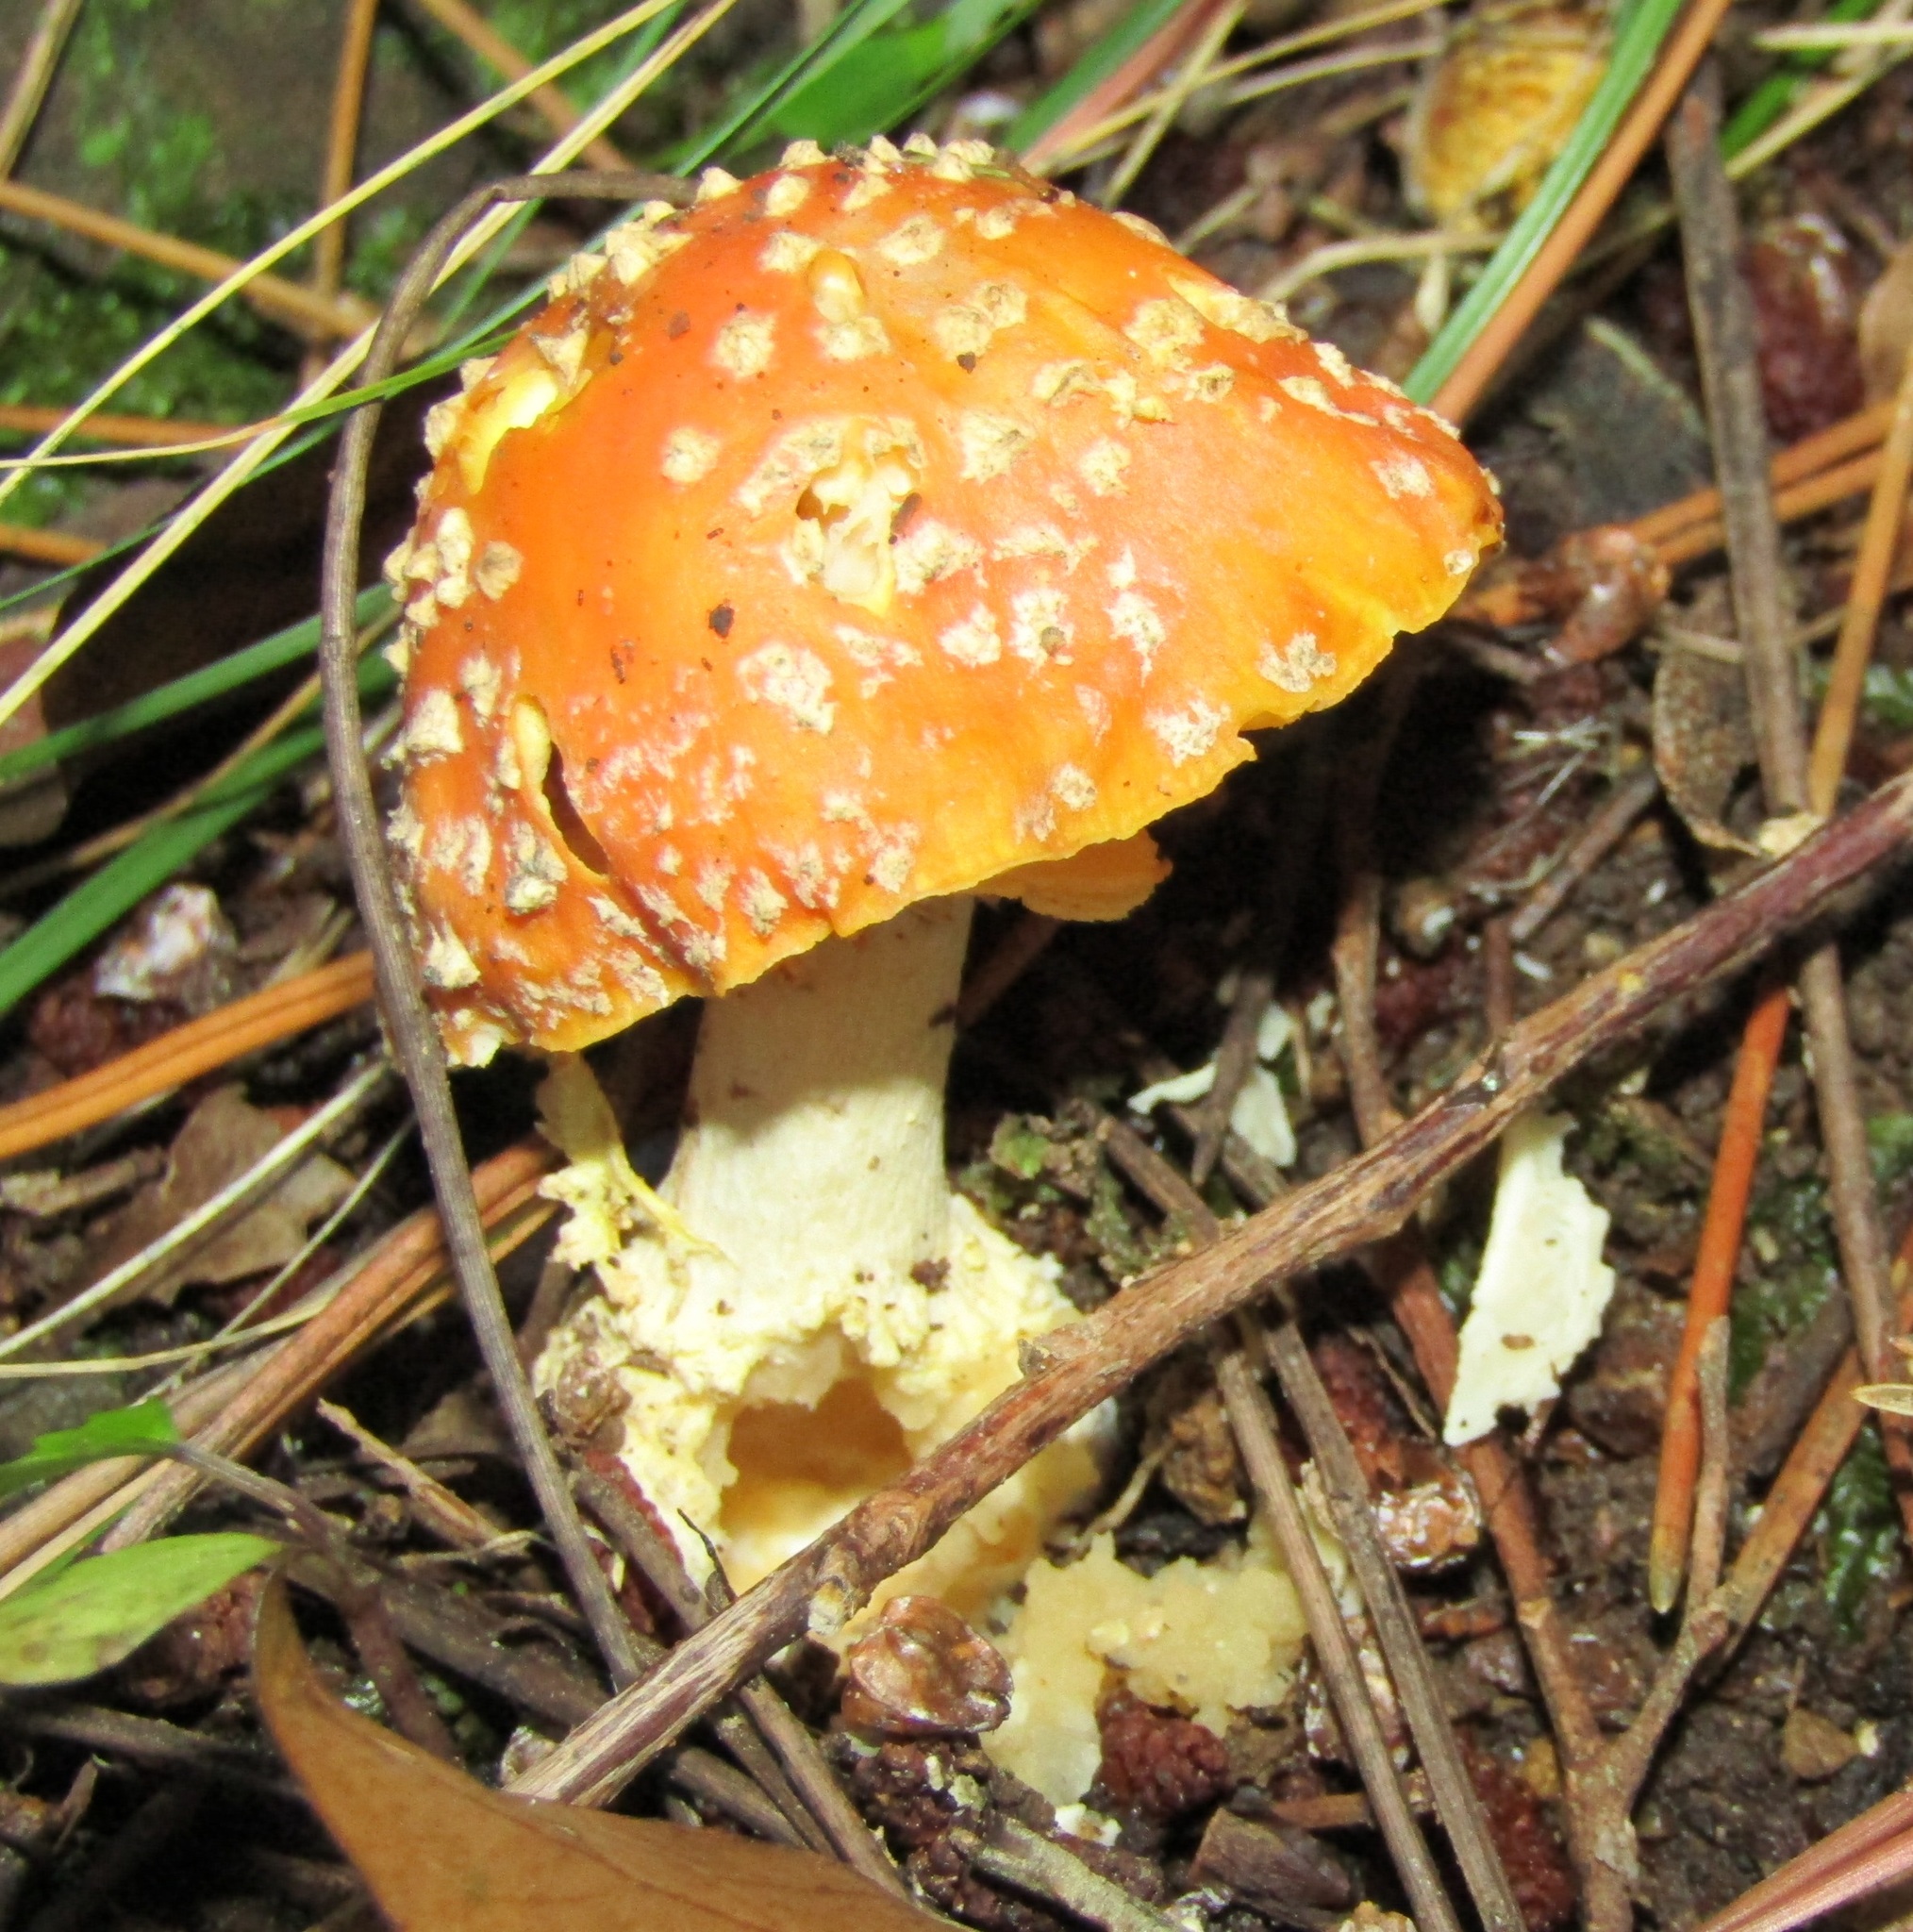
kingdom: Fungi
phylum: Basidiomycota
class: Agaricomycetes
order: Agaricales
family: Amanitaceae
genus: Amanita
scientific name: Amanita muscaria
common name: Fly agaric
